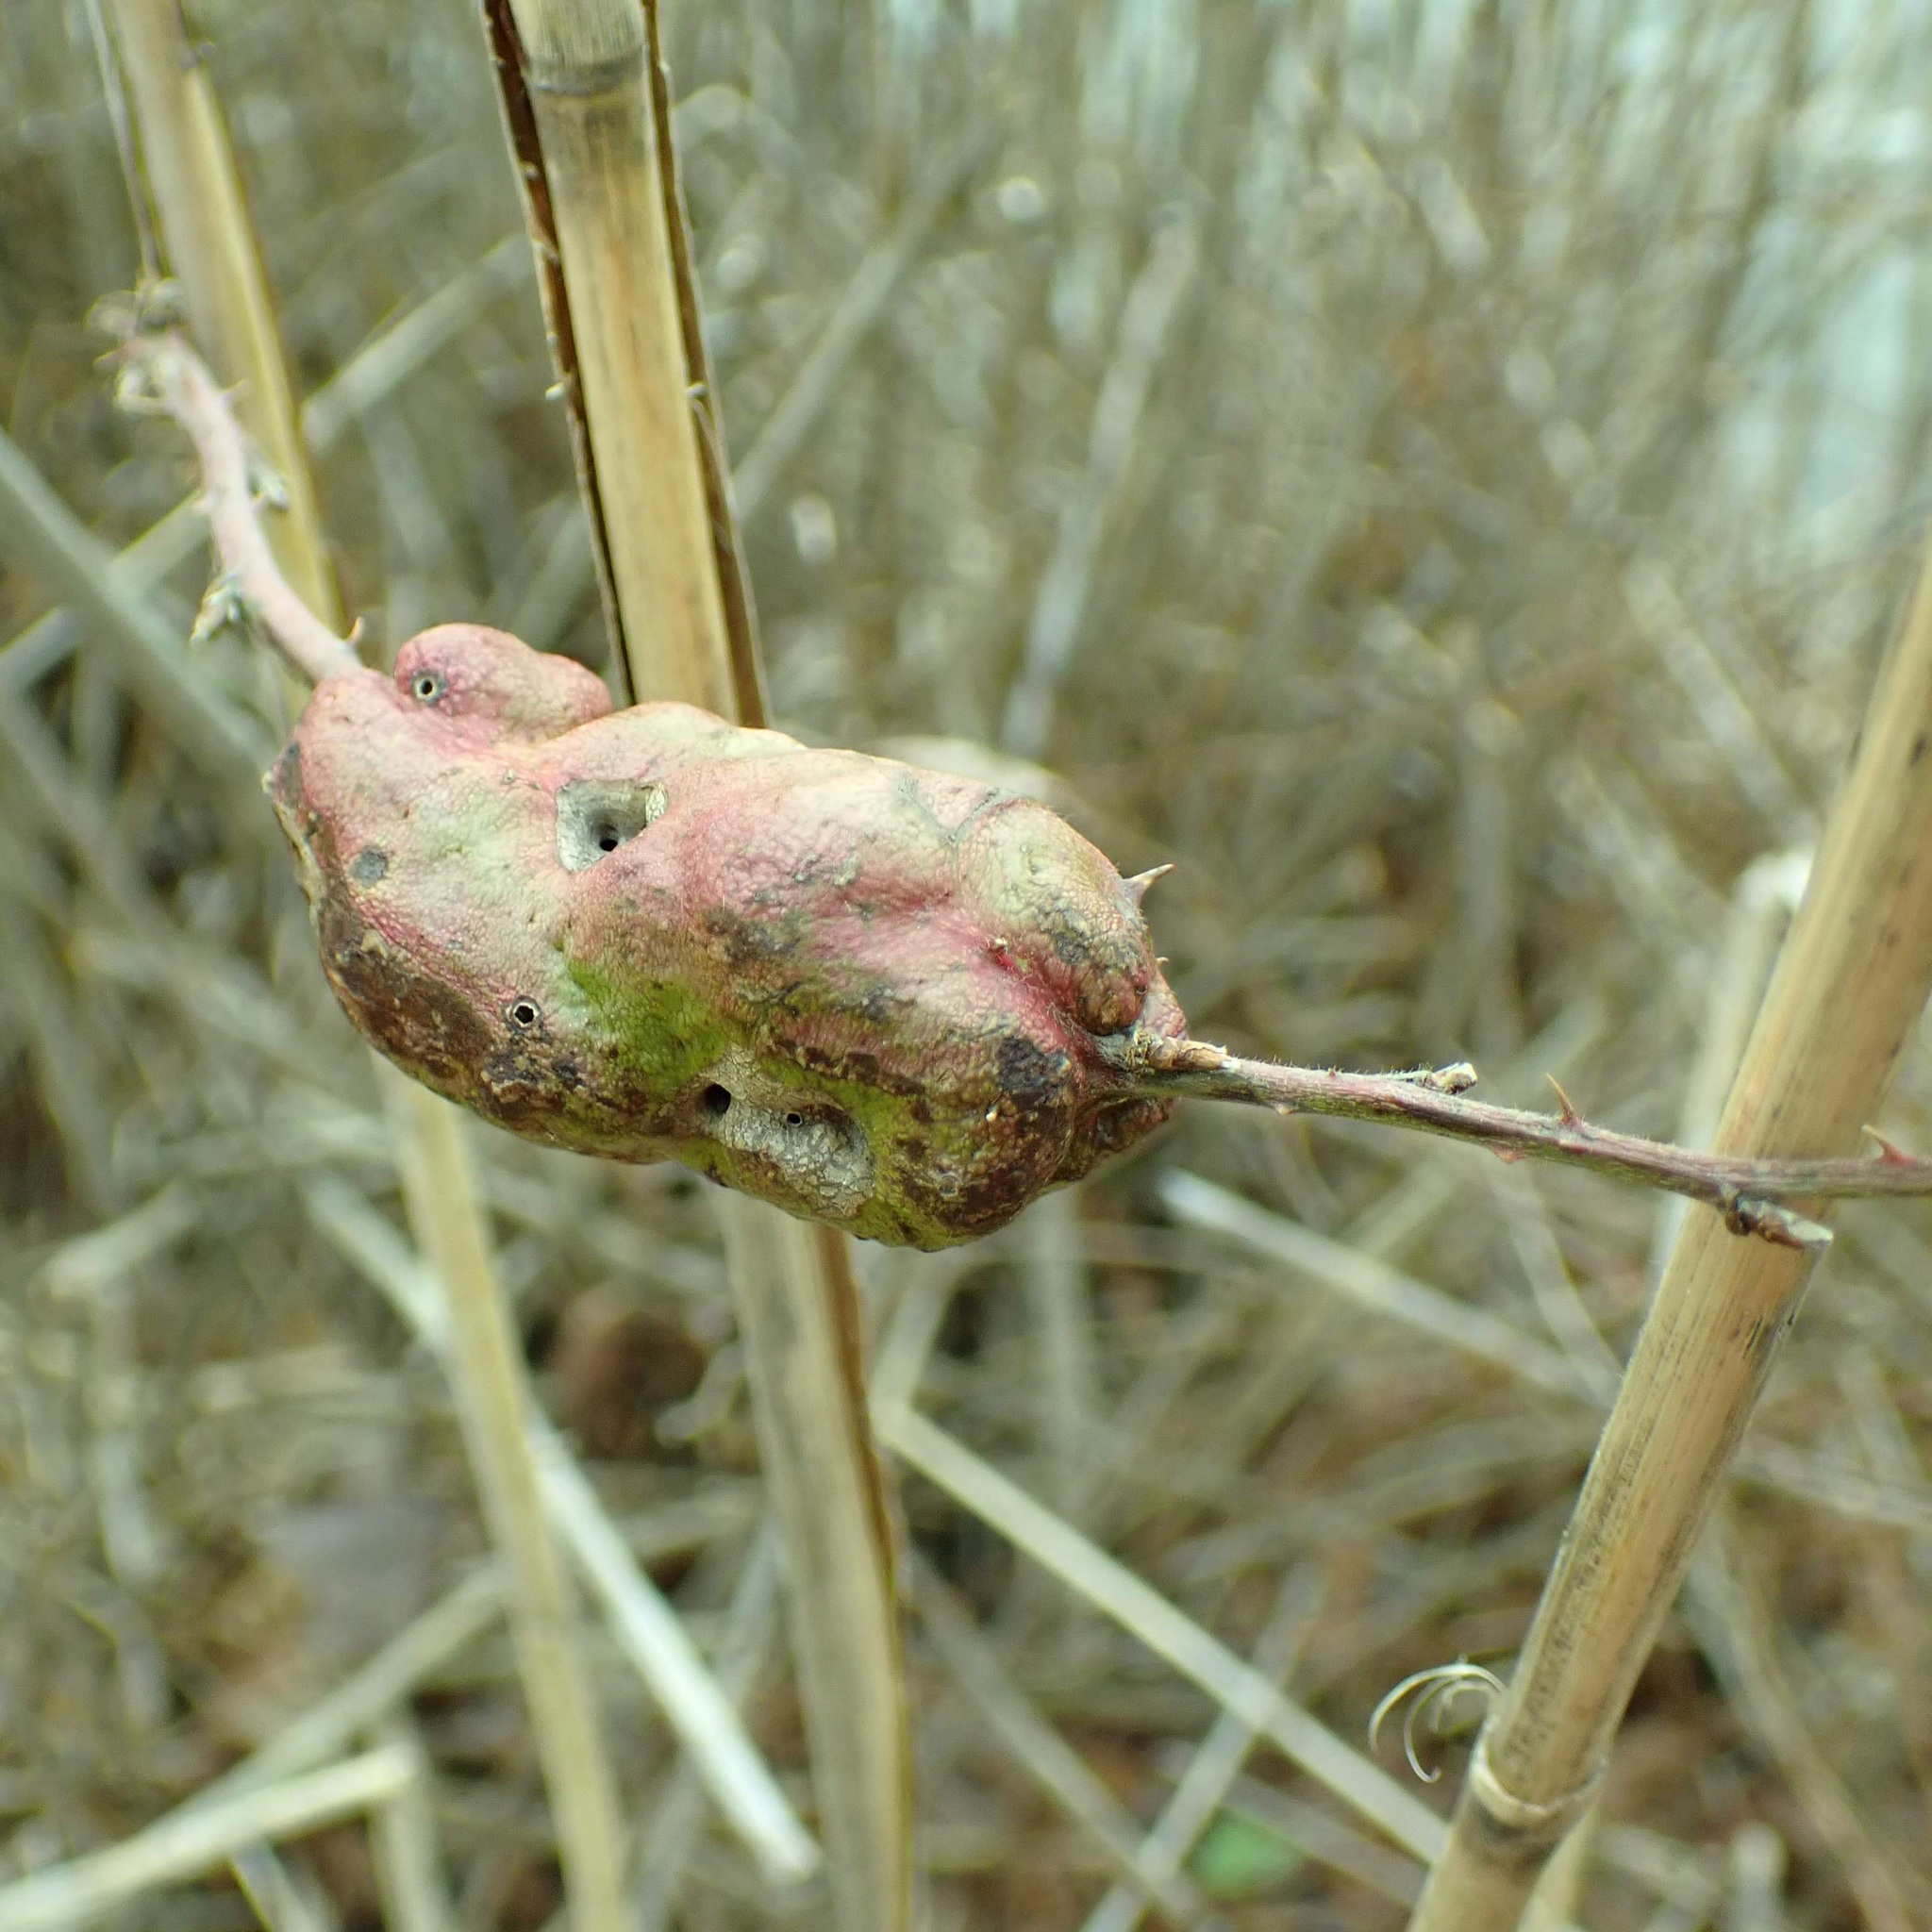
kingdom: Animalia
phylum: Arthropoda
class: Insecta
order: Hymenoptera
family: Cynipidae
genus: Diastrophus
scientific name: Diastrophus
